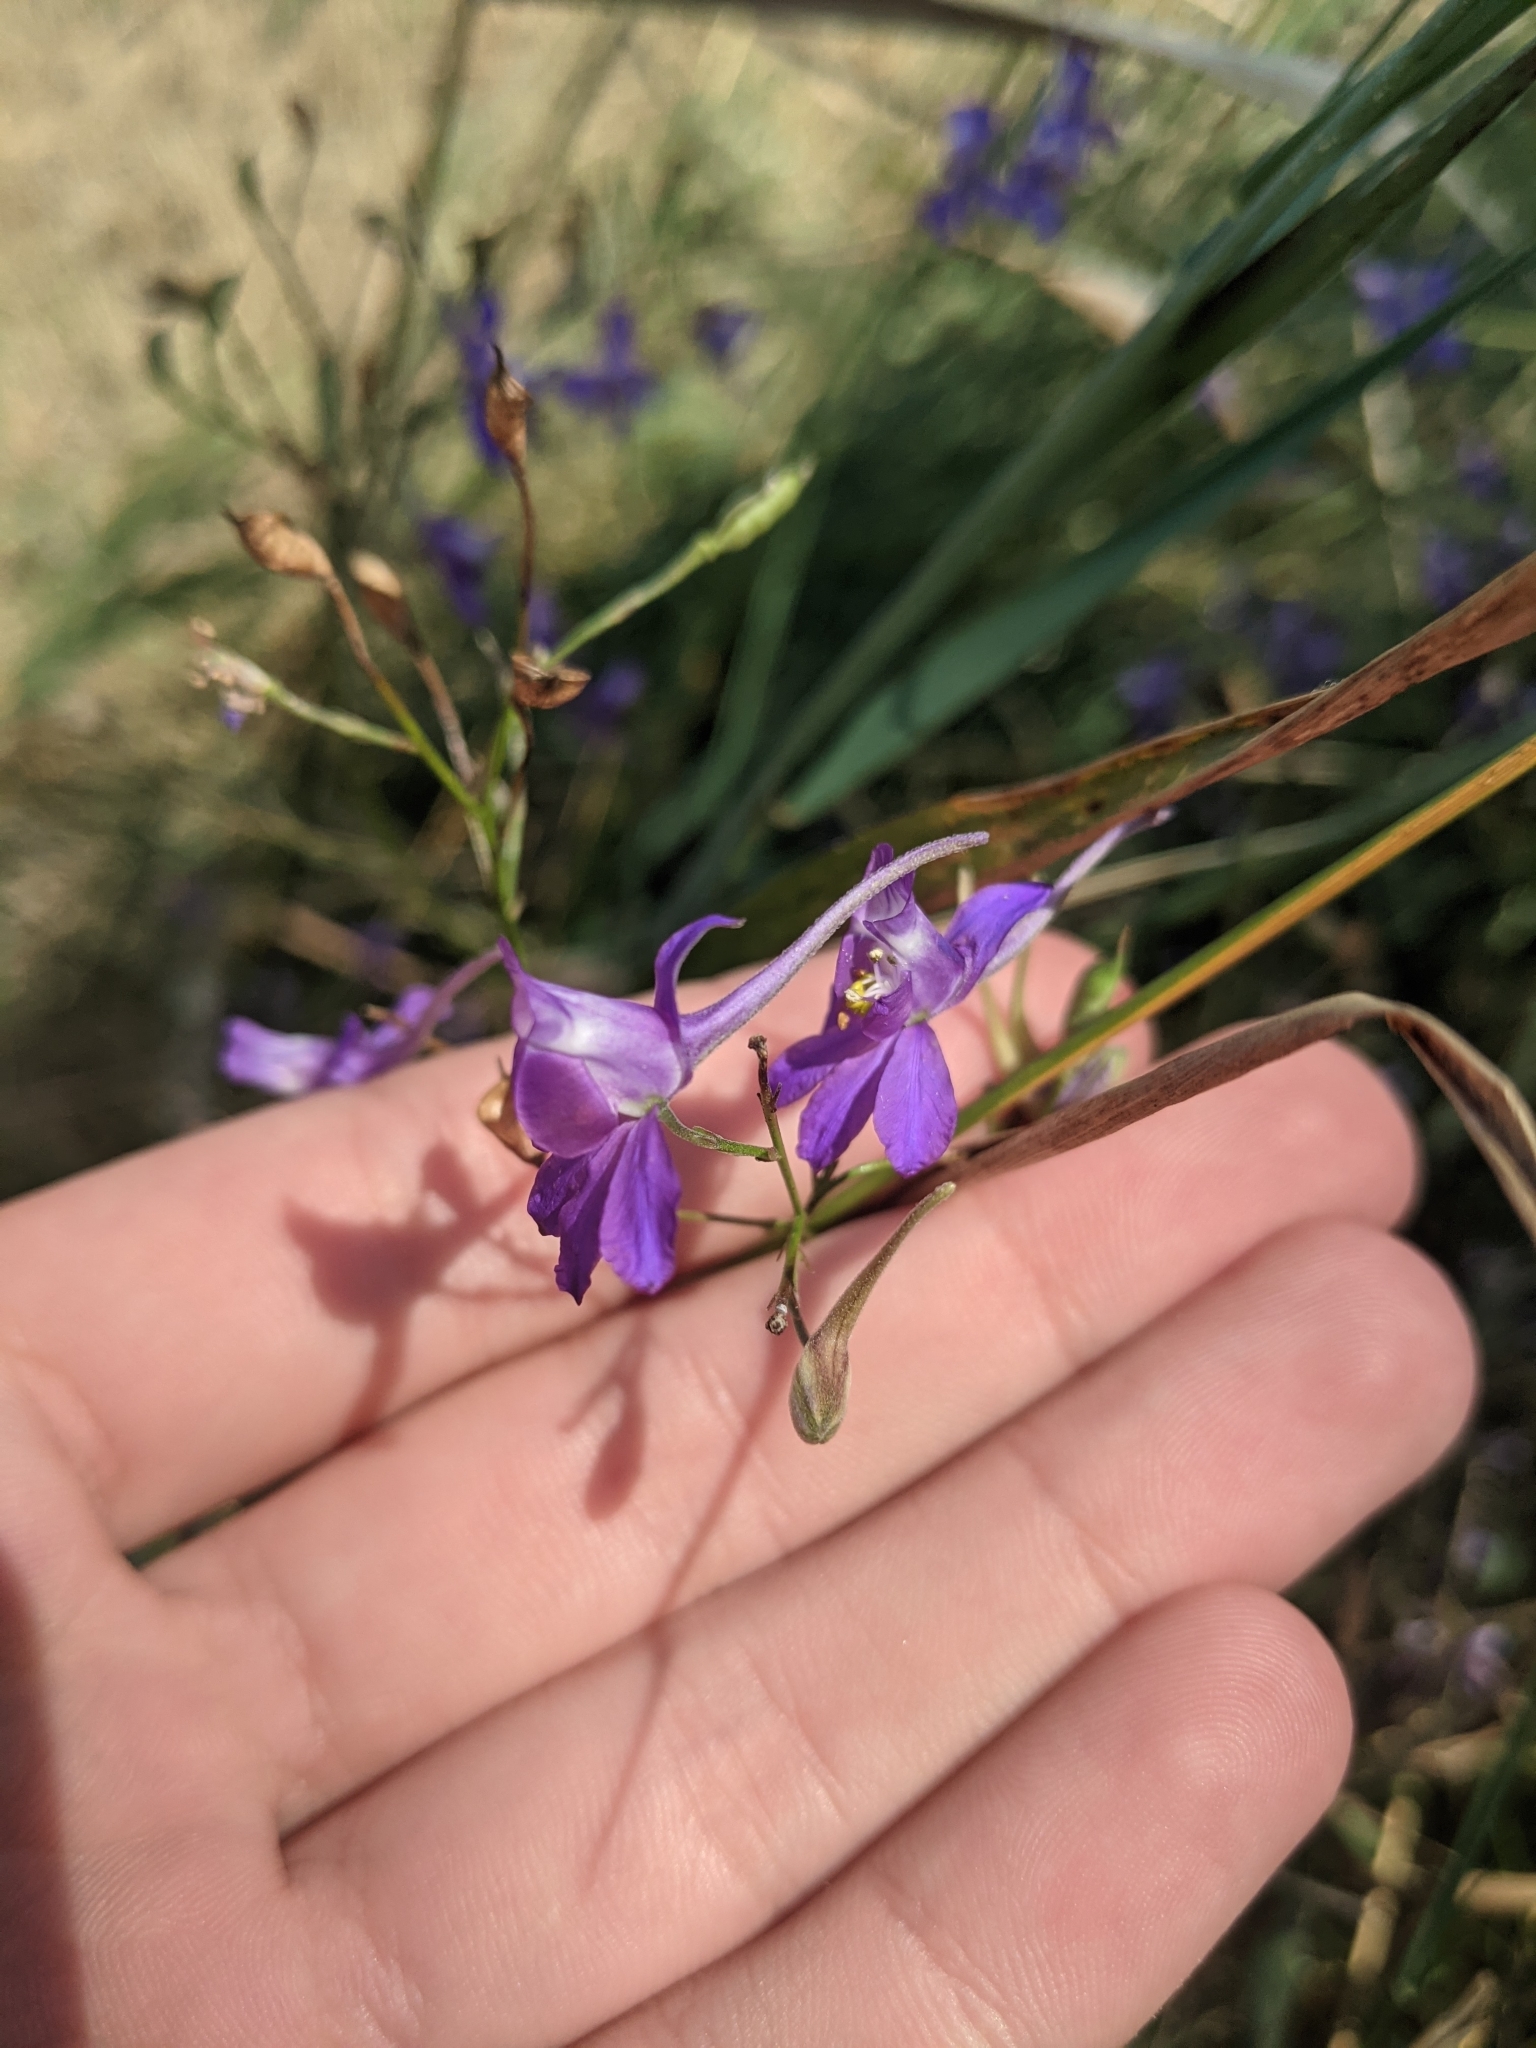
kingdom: Plantae
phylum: Tracheophyta
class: Magnoliopsida
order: Ranunculales
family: Ranunculaceae
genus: Delphinium
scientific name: Delphinium consolida
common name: Branching larkspur
